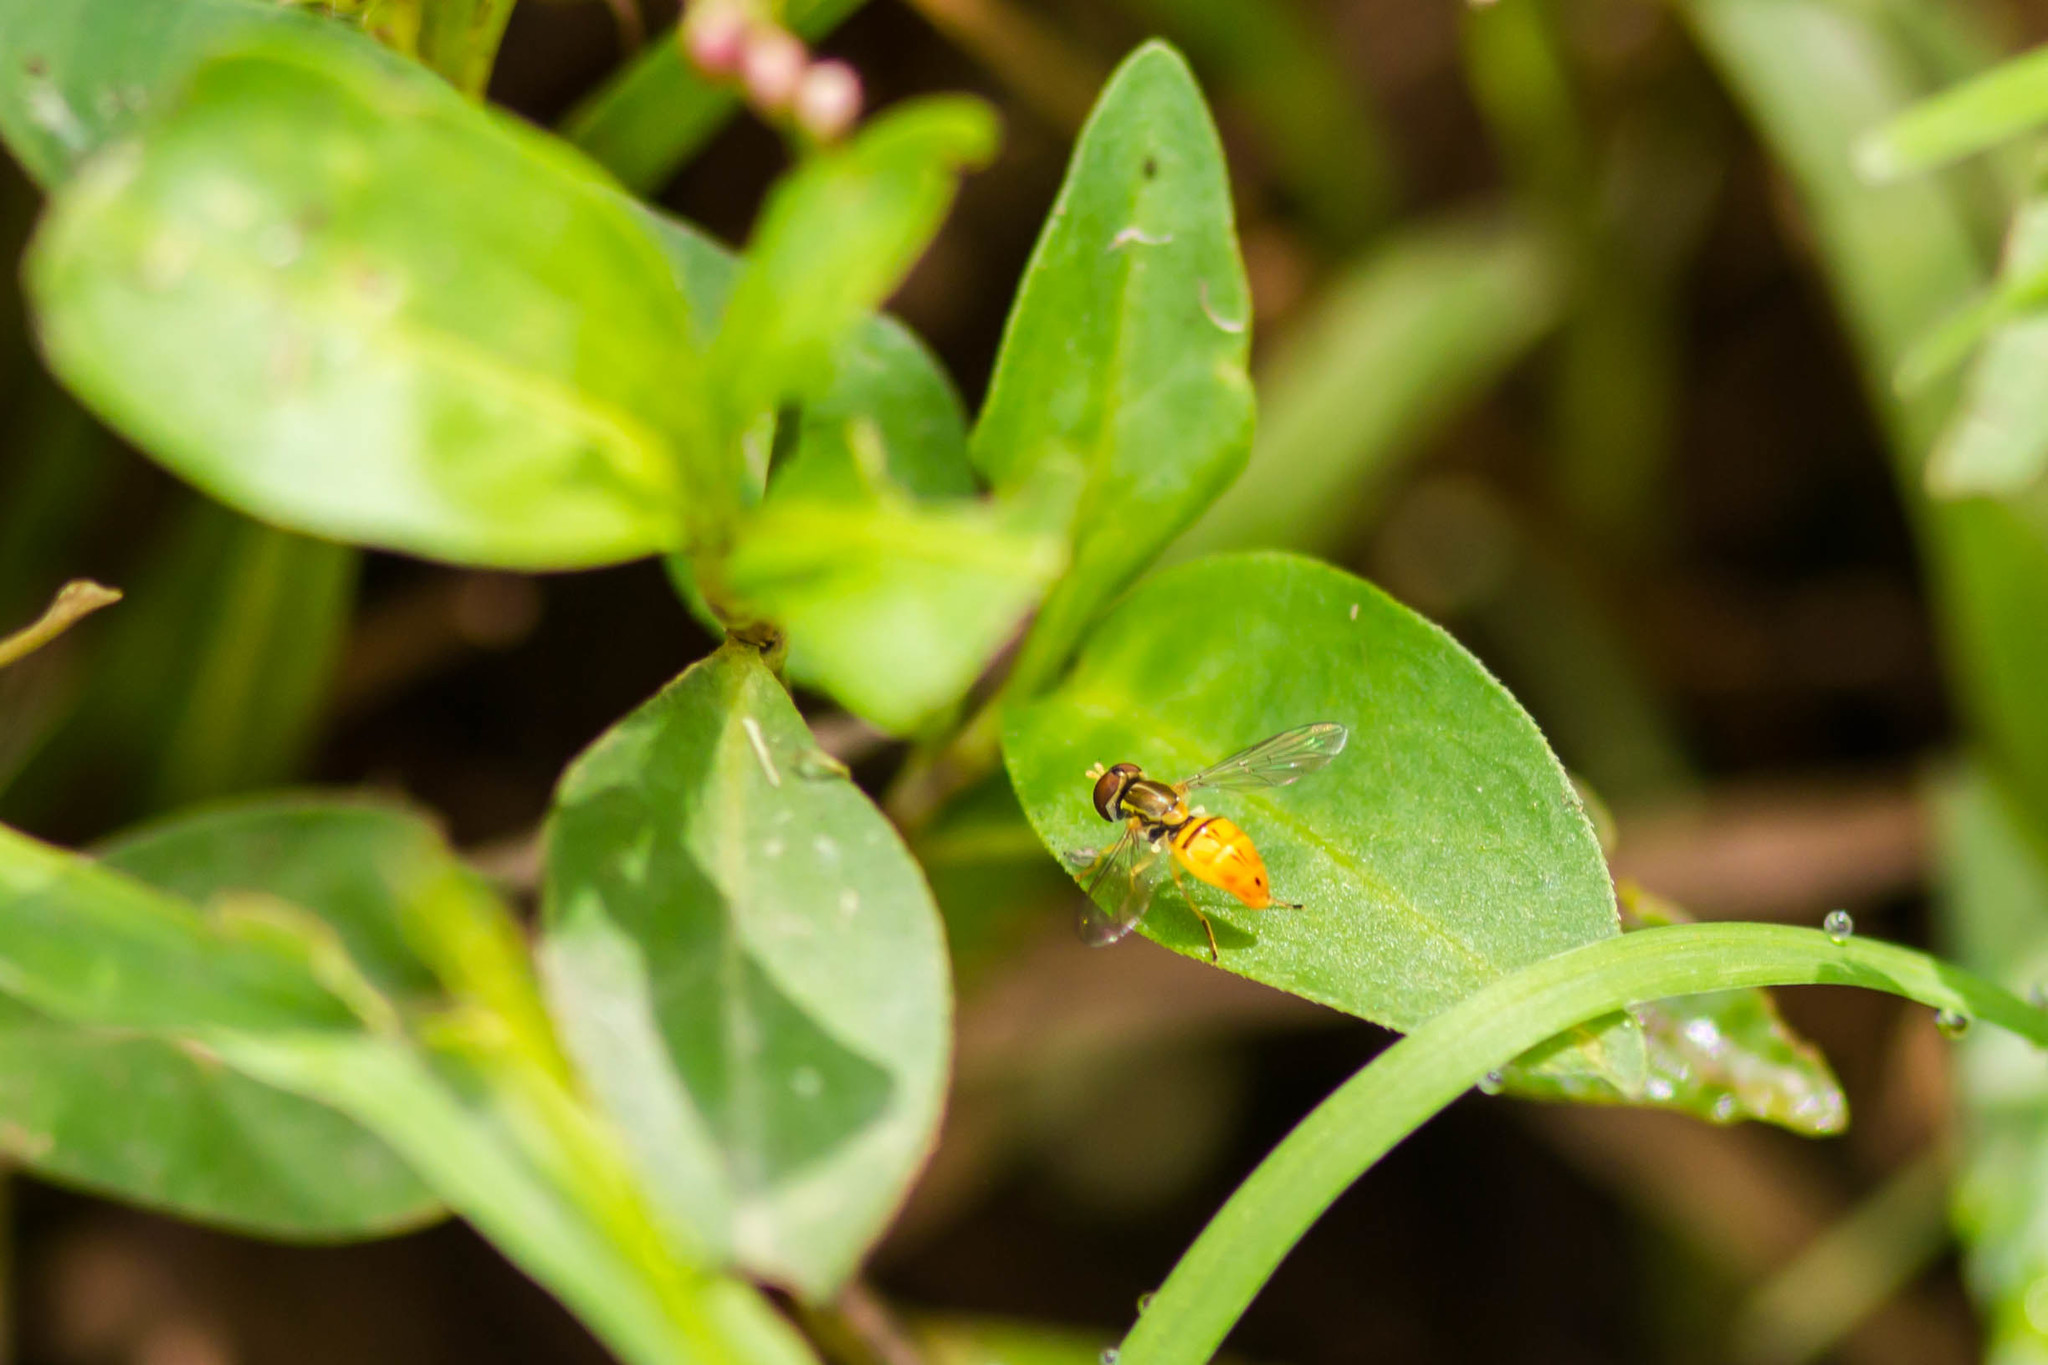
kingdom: Animalia
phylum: Arthropoda
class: Insecta
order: Diptera
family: Syrphidae
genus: Toxomerus
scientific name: Toxomerus marginatus
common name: Syrphid fly
